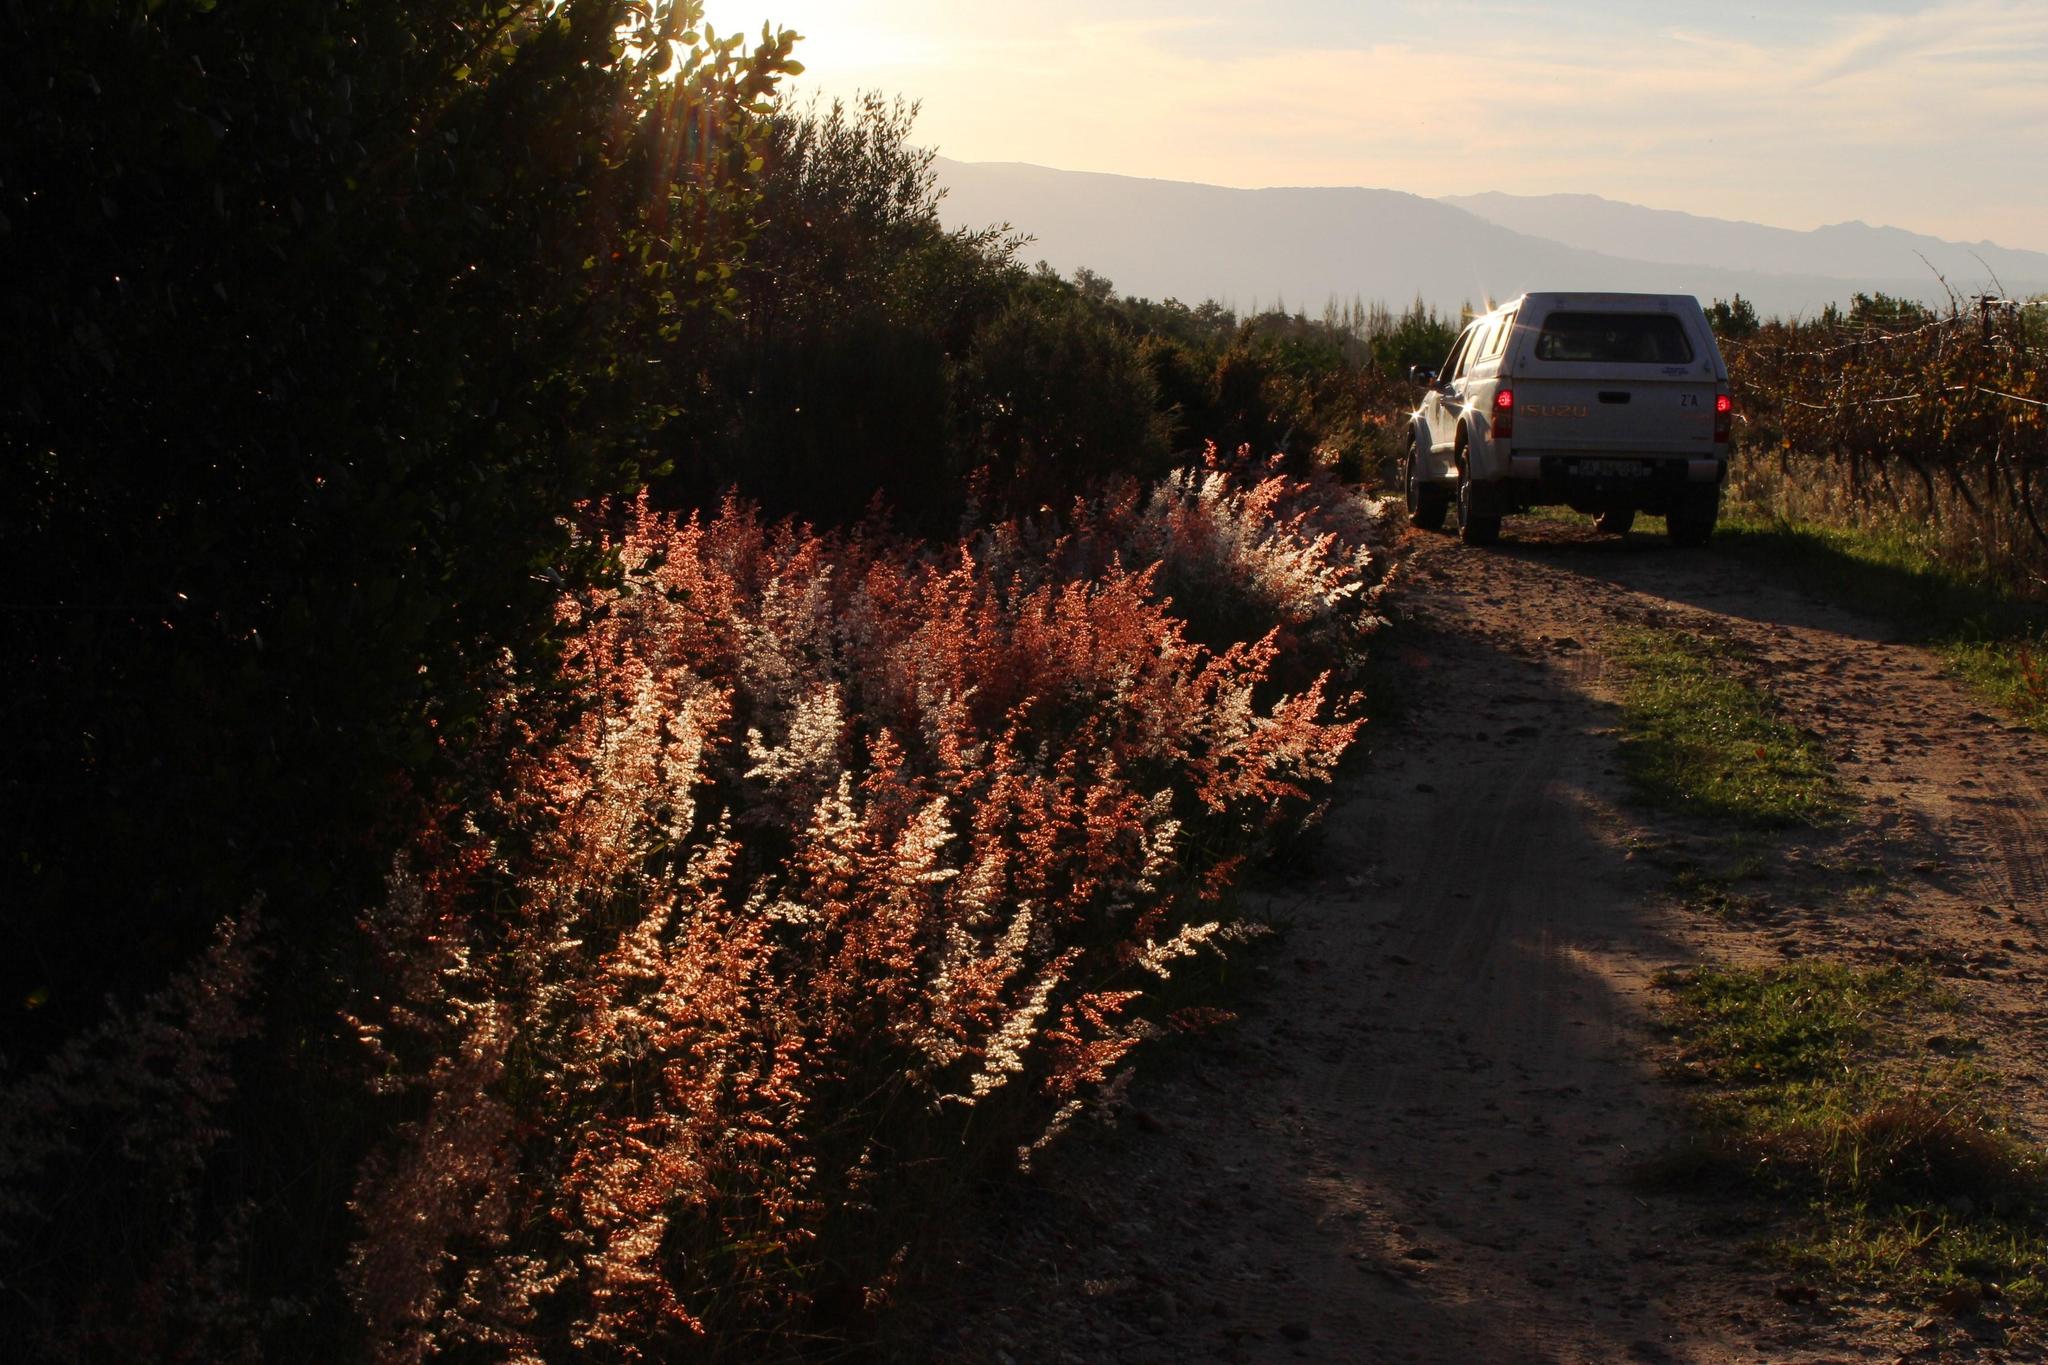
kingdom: Plantae
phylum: Tracheophyta
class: Liliopsida
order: Poales
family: Poaceae
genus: Melinis
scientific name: Melinis repens
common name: Rose natal grass
